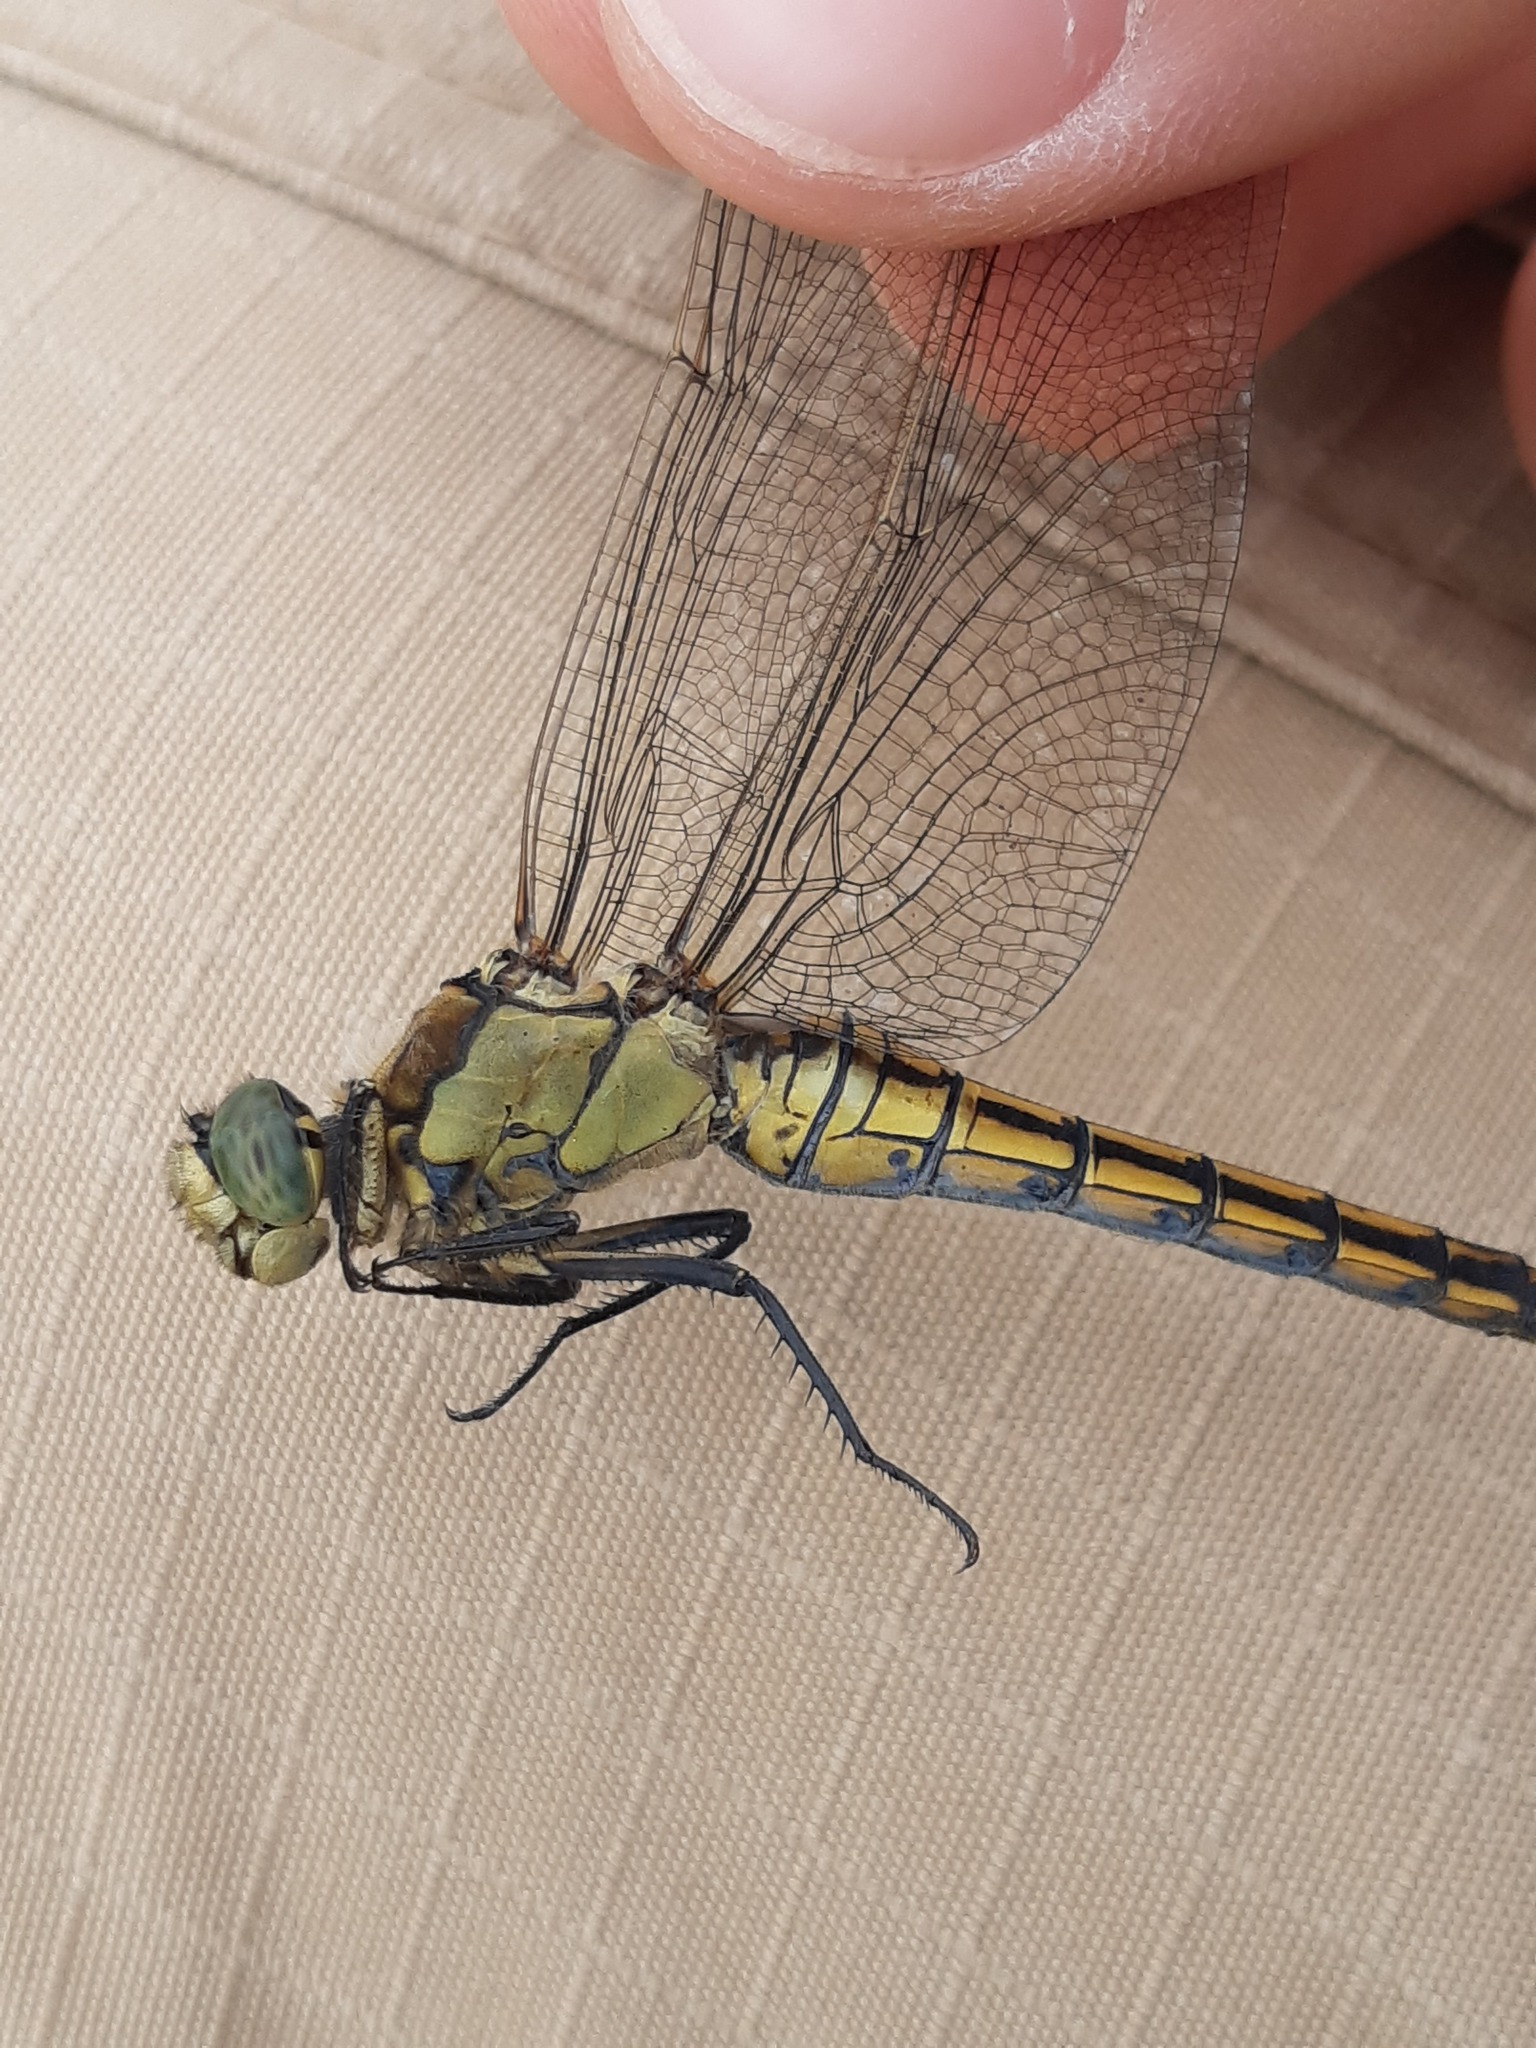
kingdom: Animalia
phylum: Arthropoda
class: Insecta
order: Odonata
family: Libellulidae
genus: Orthetrum
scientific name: Orthetrum cancellatum
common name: Black-tailed skimmer
